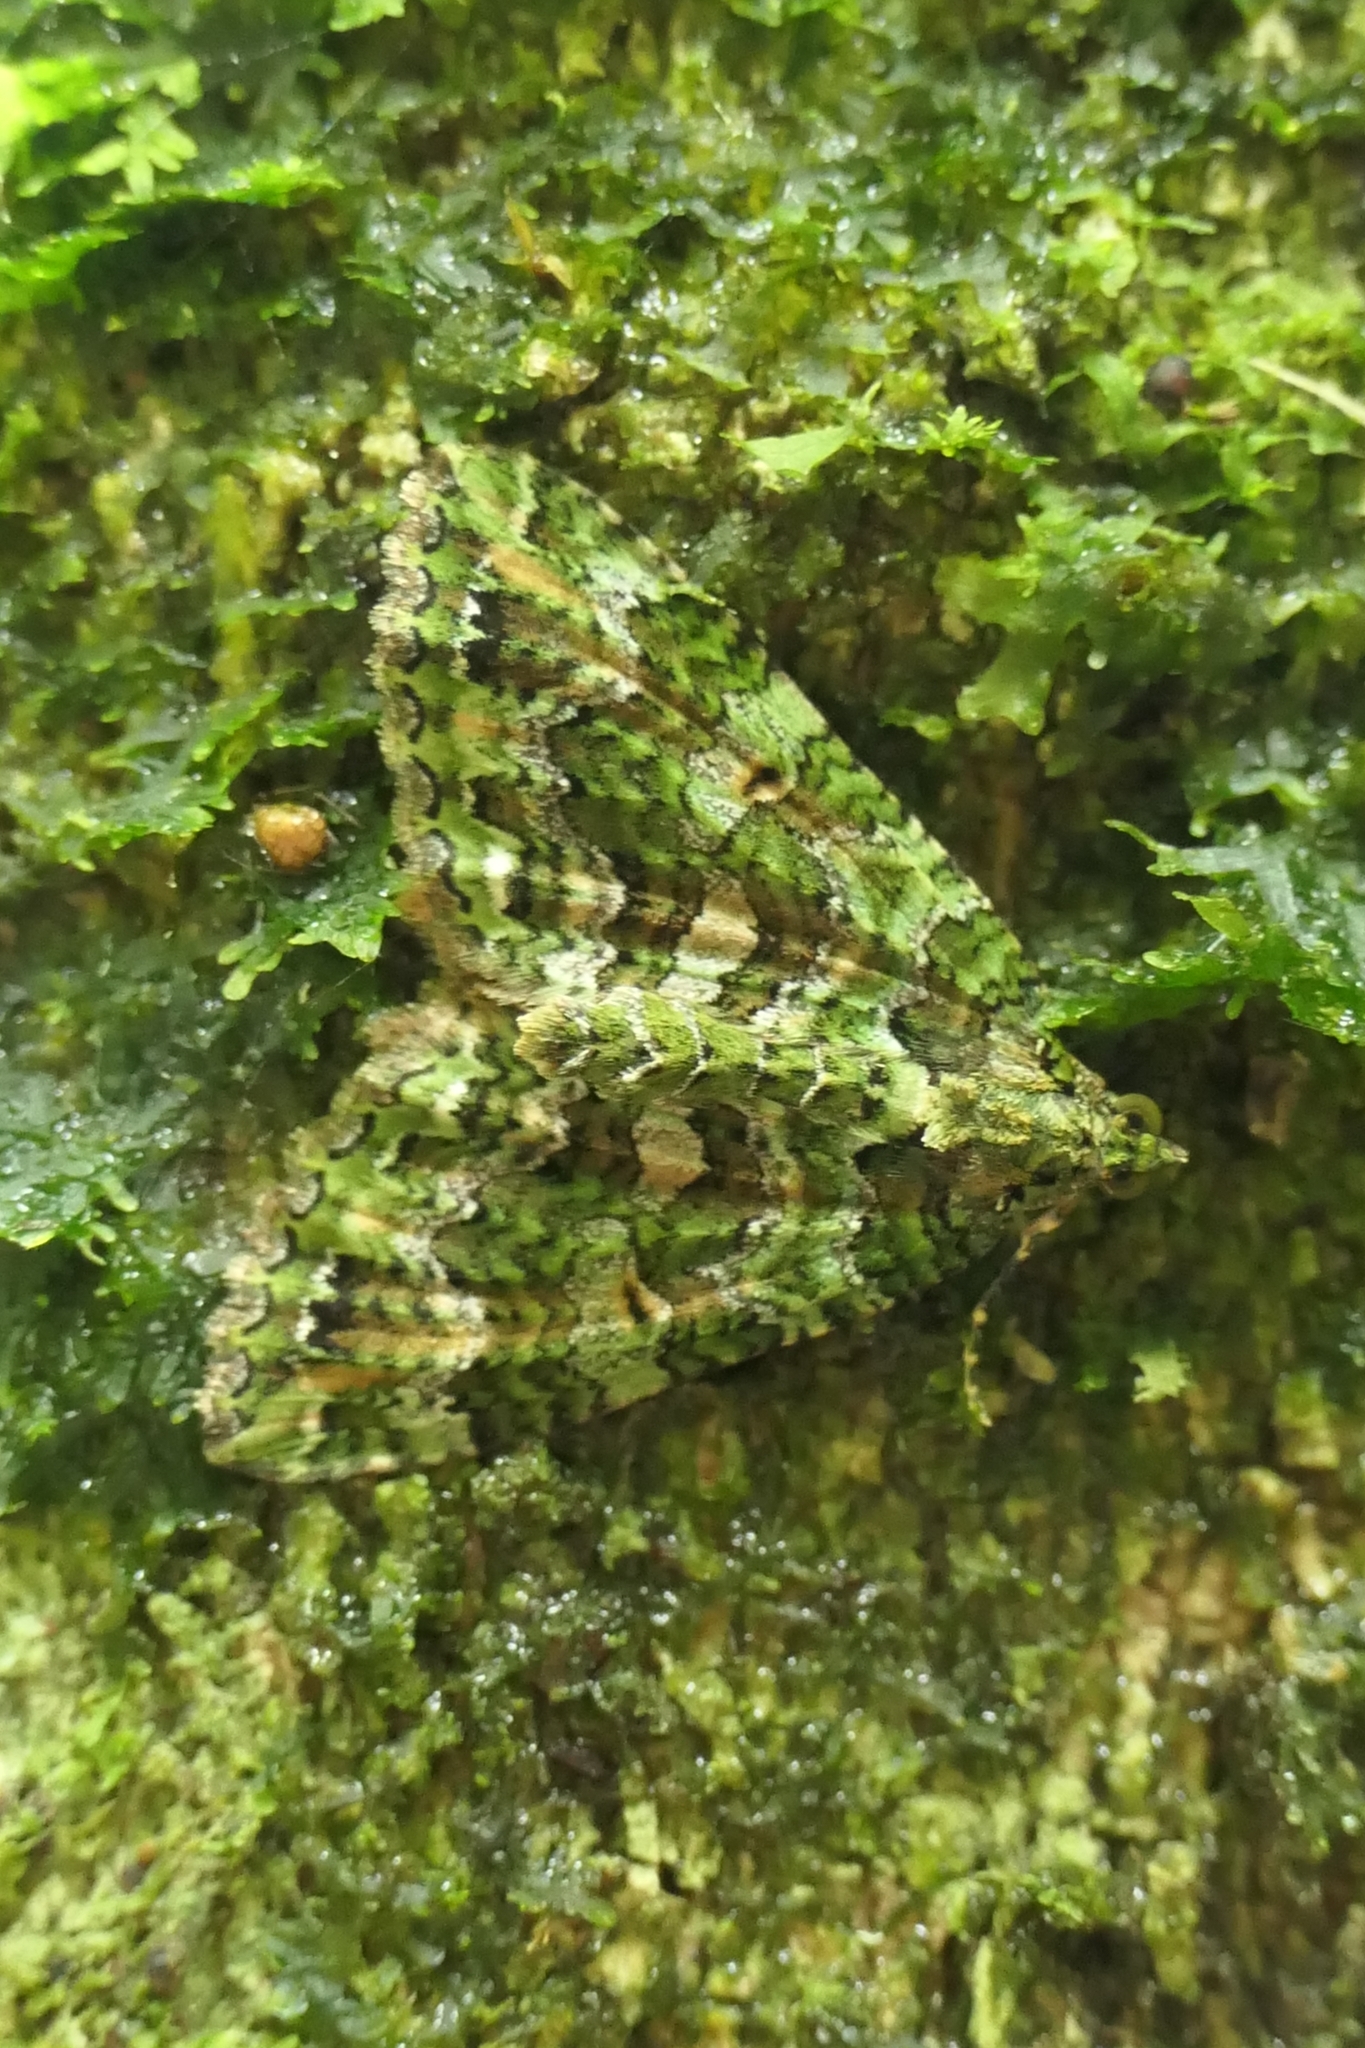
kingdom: Animalia
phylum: Arthropoda
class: Insecta
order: Lepidoptera
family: Geometridae
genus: Austrocidaria
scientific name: Austrocidaria similata
